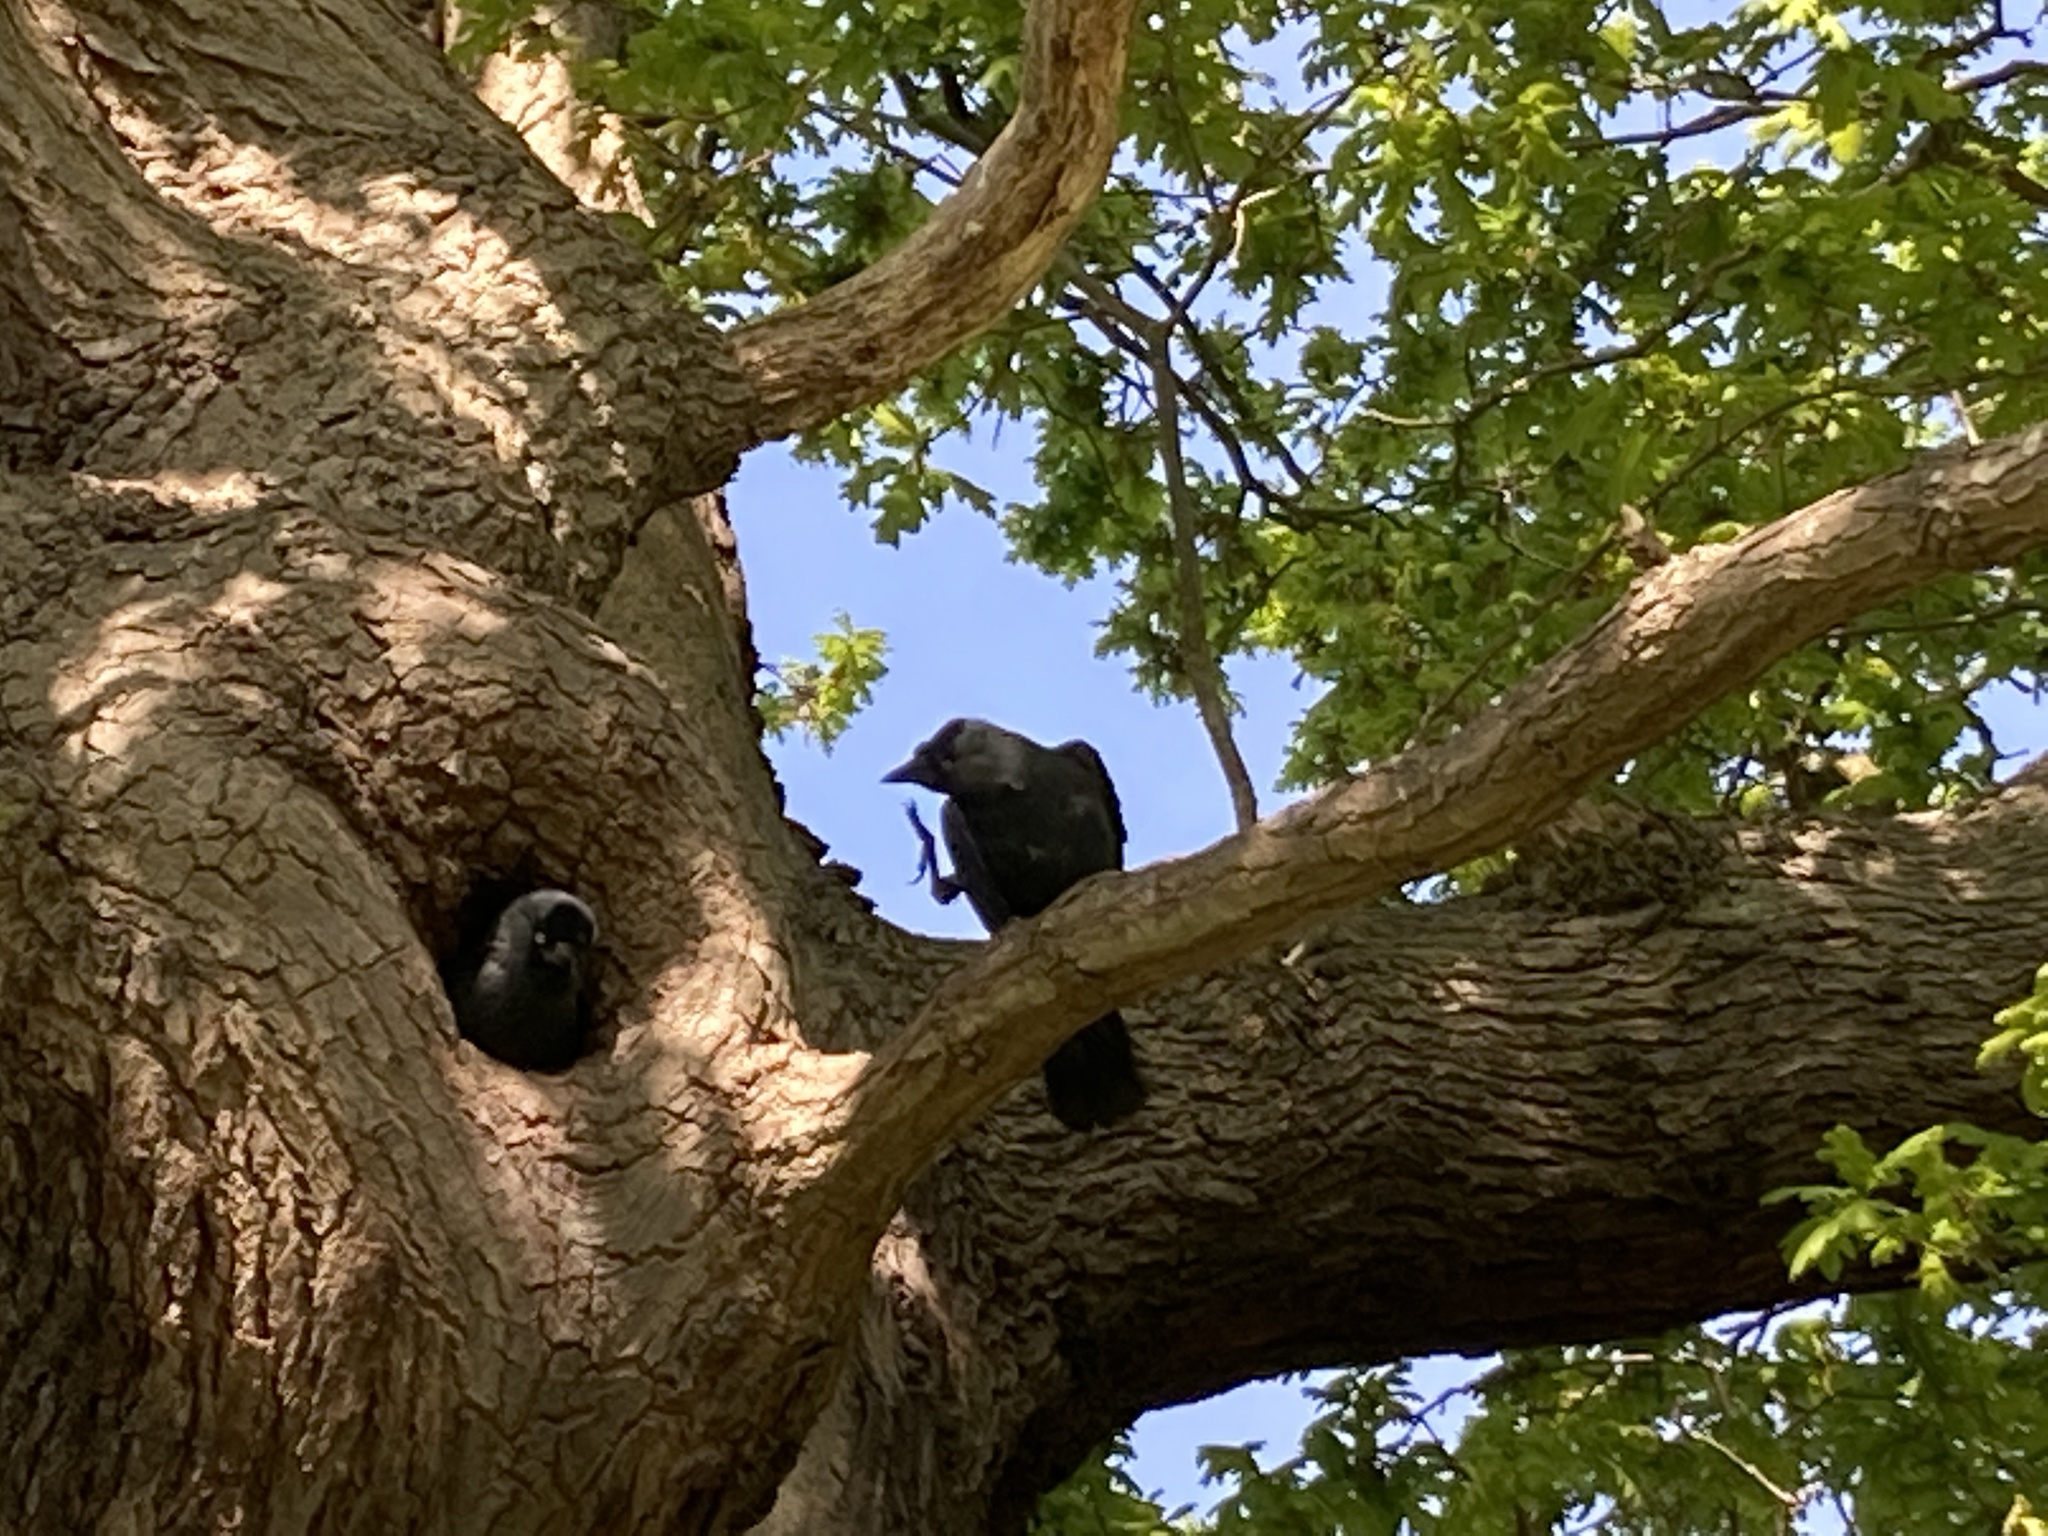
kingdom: Animalia
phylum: Chordata
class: Aves
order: Passeriformes
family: Corvidae
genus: Coloeus
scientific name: Coloeus monedula
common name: Western jackdaw
